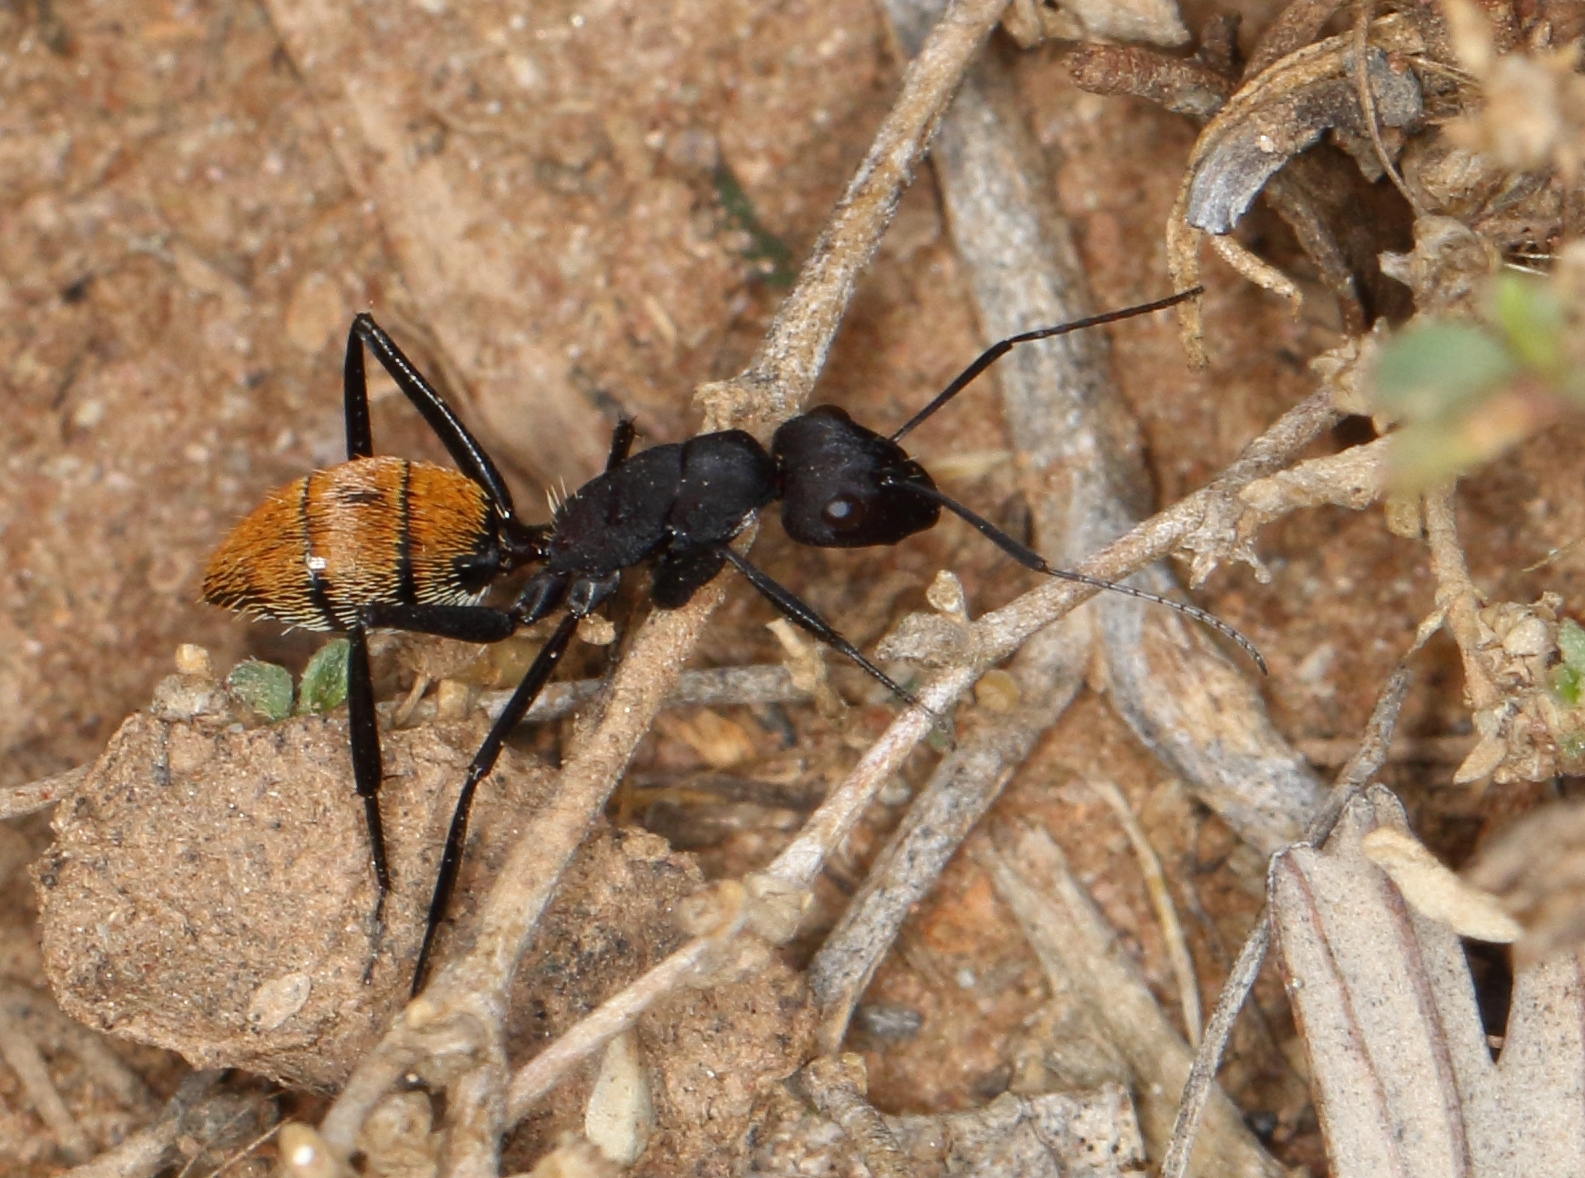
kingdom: Animalia
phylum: Arthropoda
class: Insecta
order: Hymenoptera
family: Formicidae
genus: Camponotus
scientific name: Camponotus fulvopilosus
